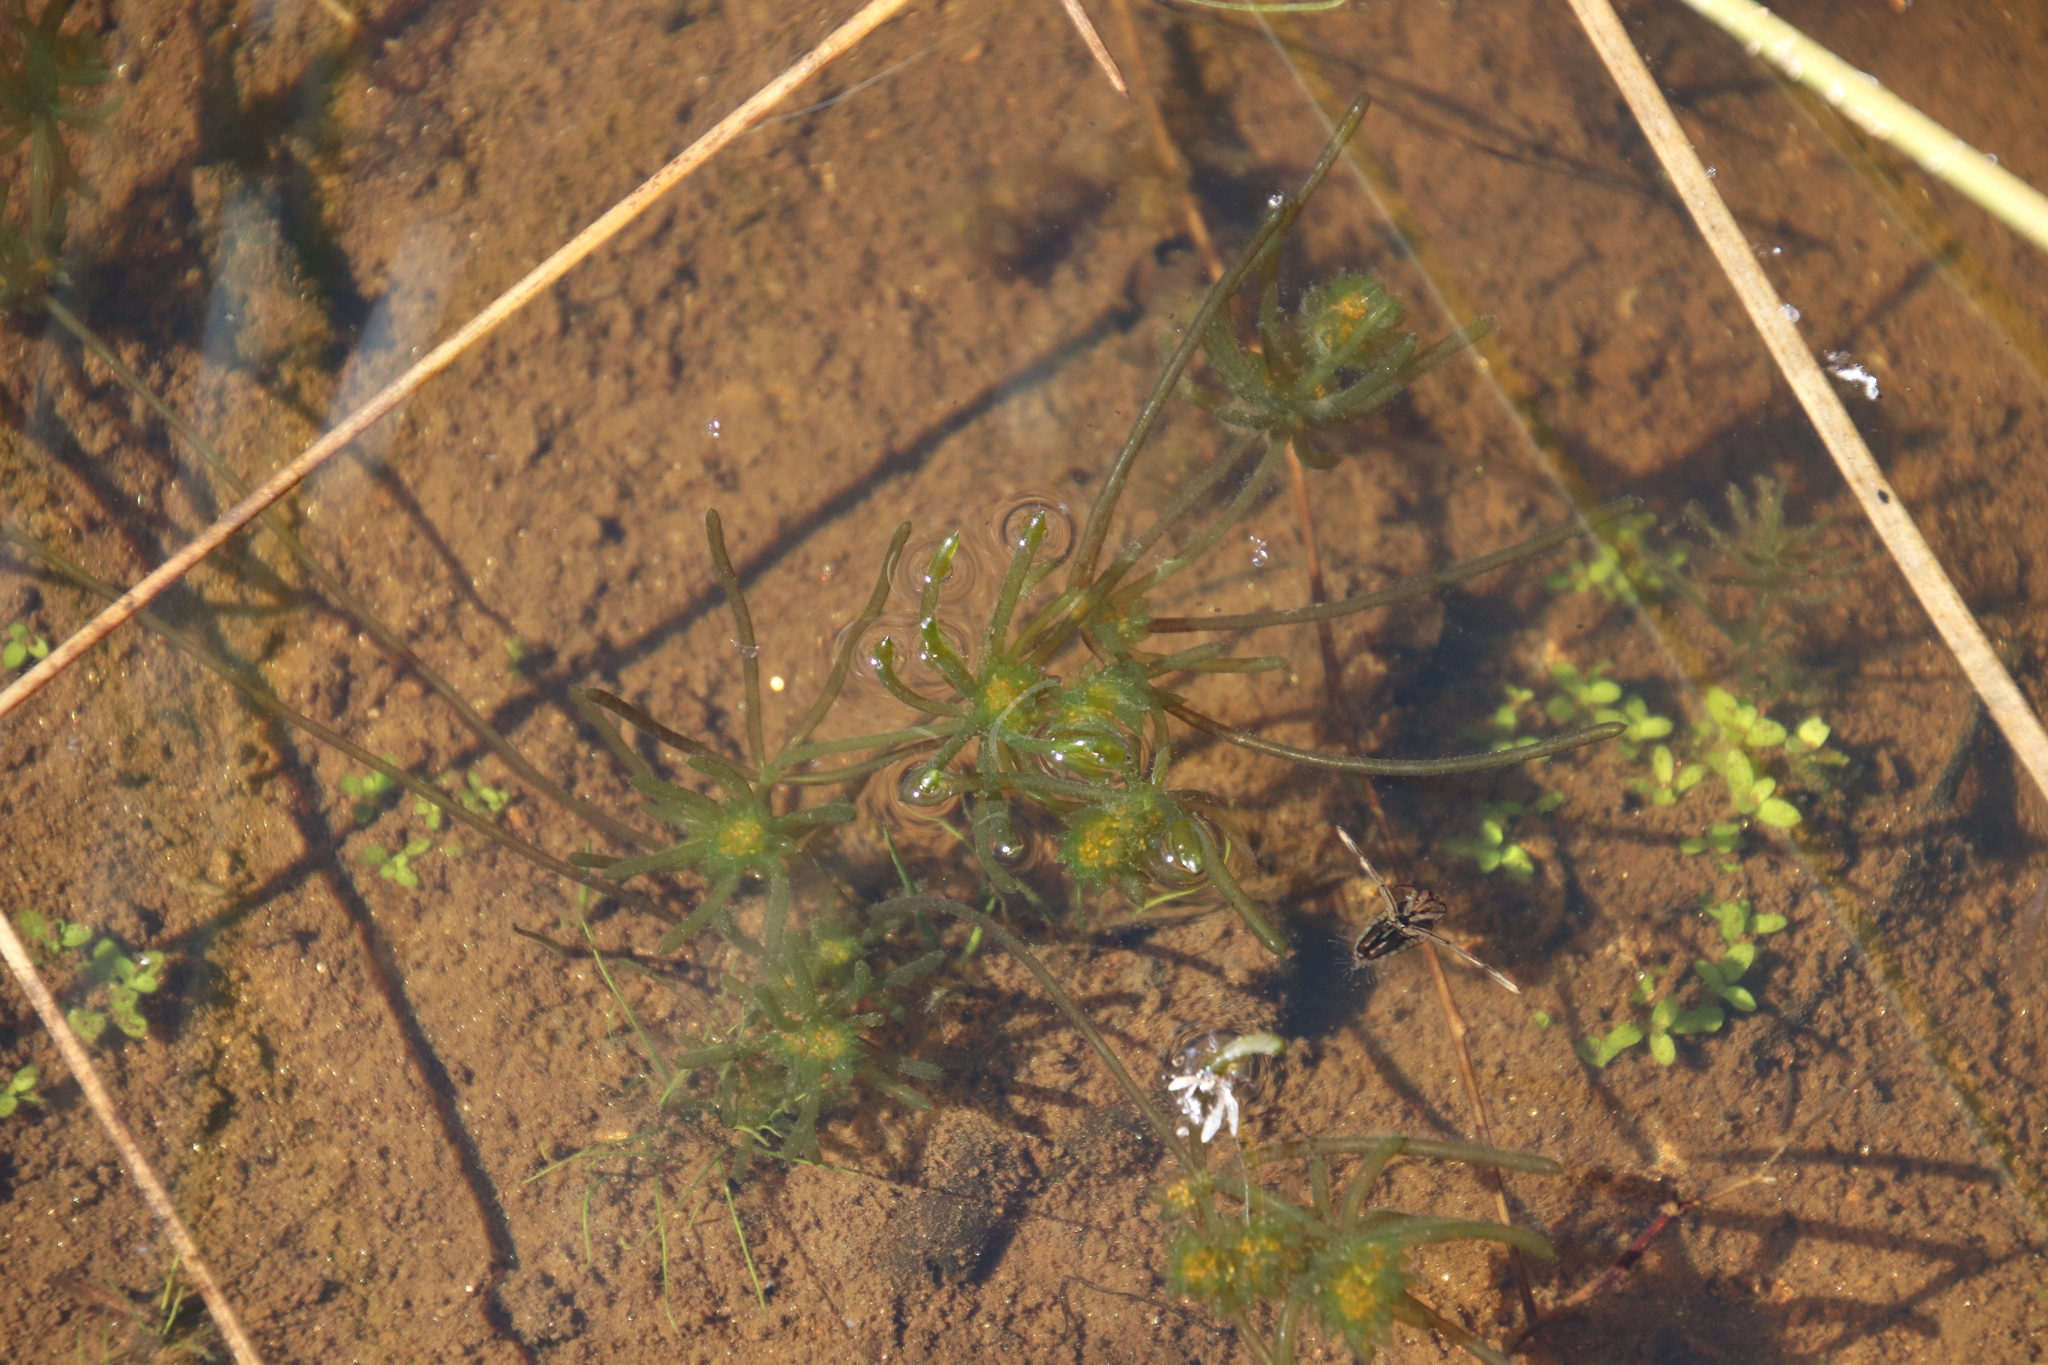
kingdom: Plantae
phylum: Charophyta
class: Charophyceae
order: Charales
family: Characeae
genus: Nitella
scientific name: Nitella clavata
